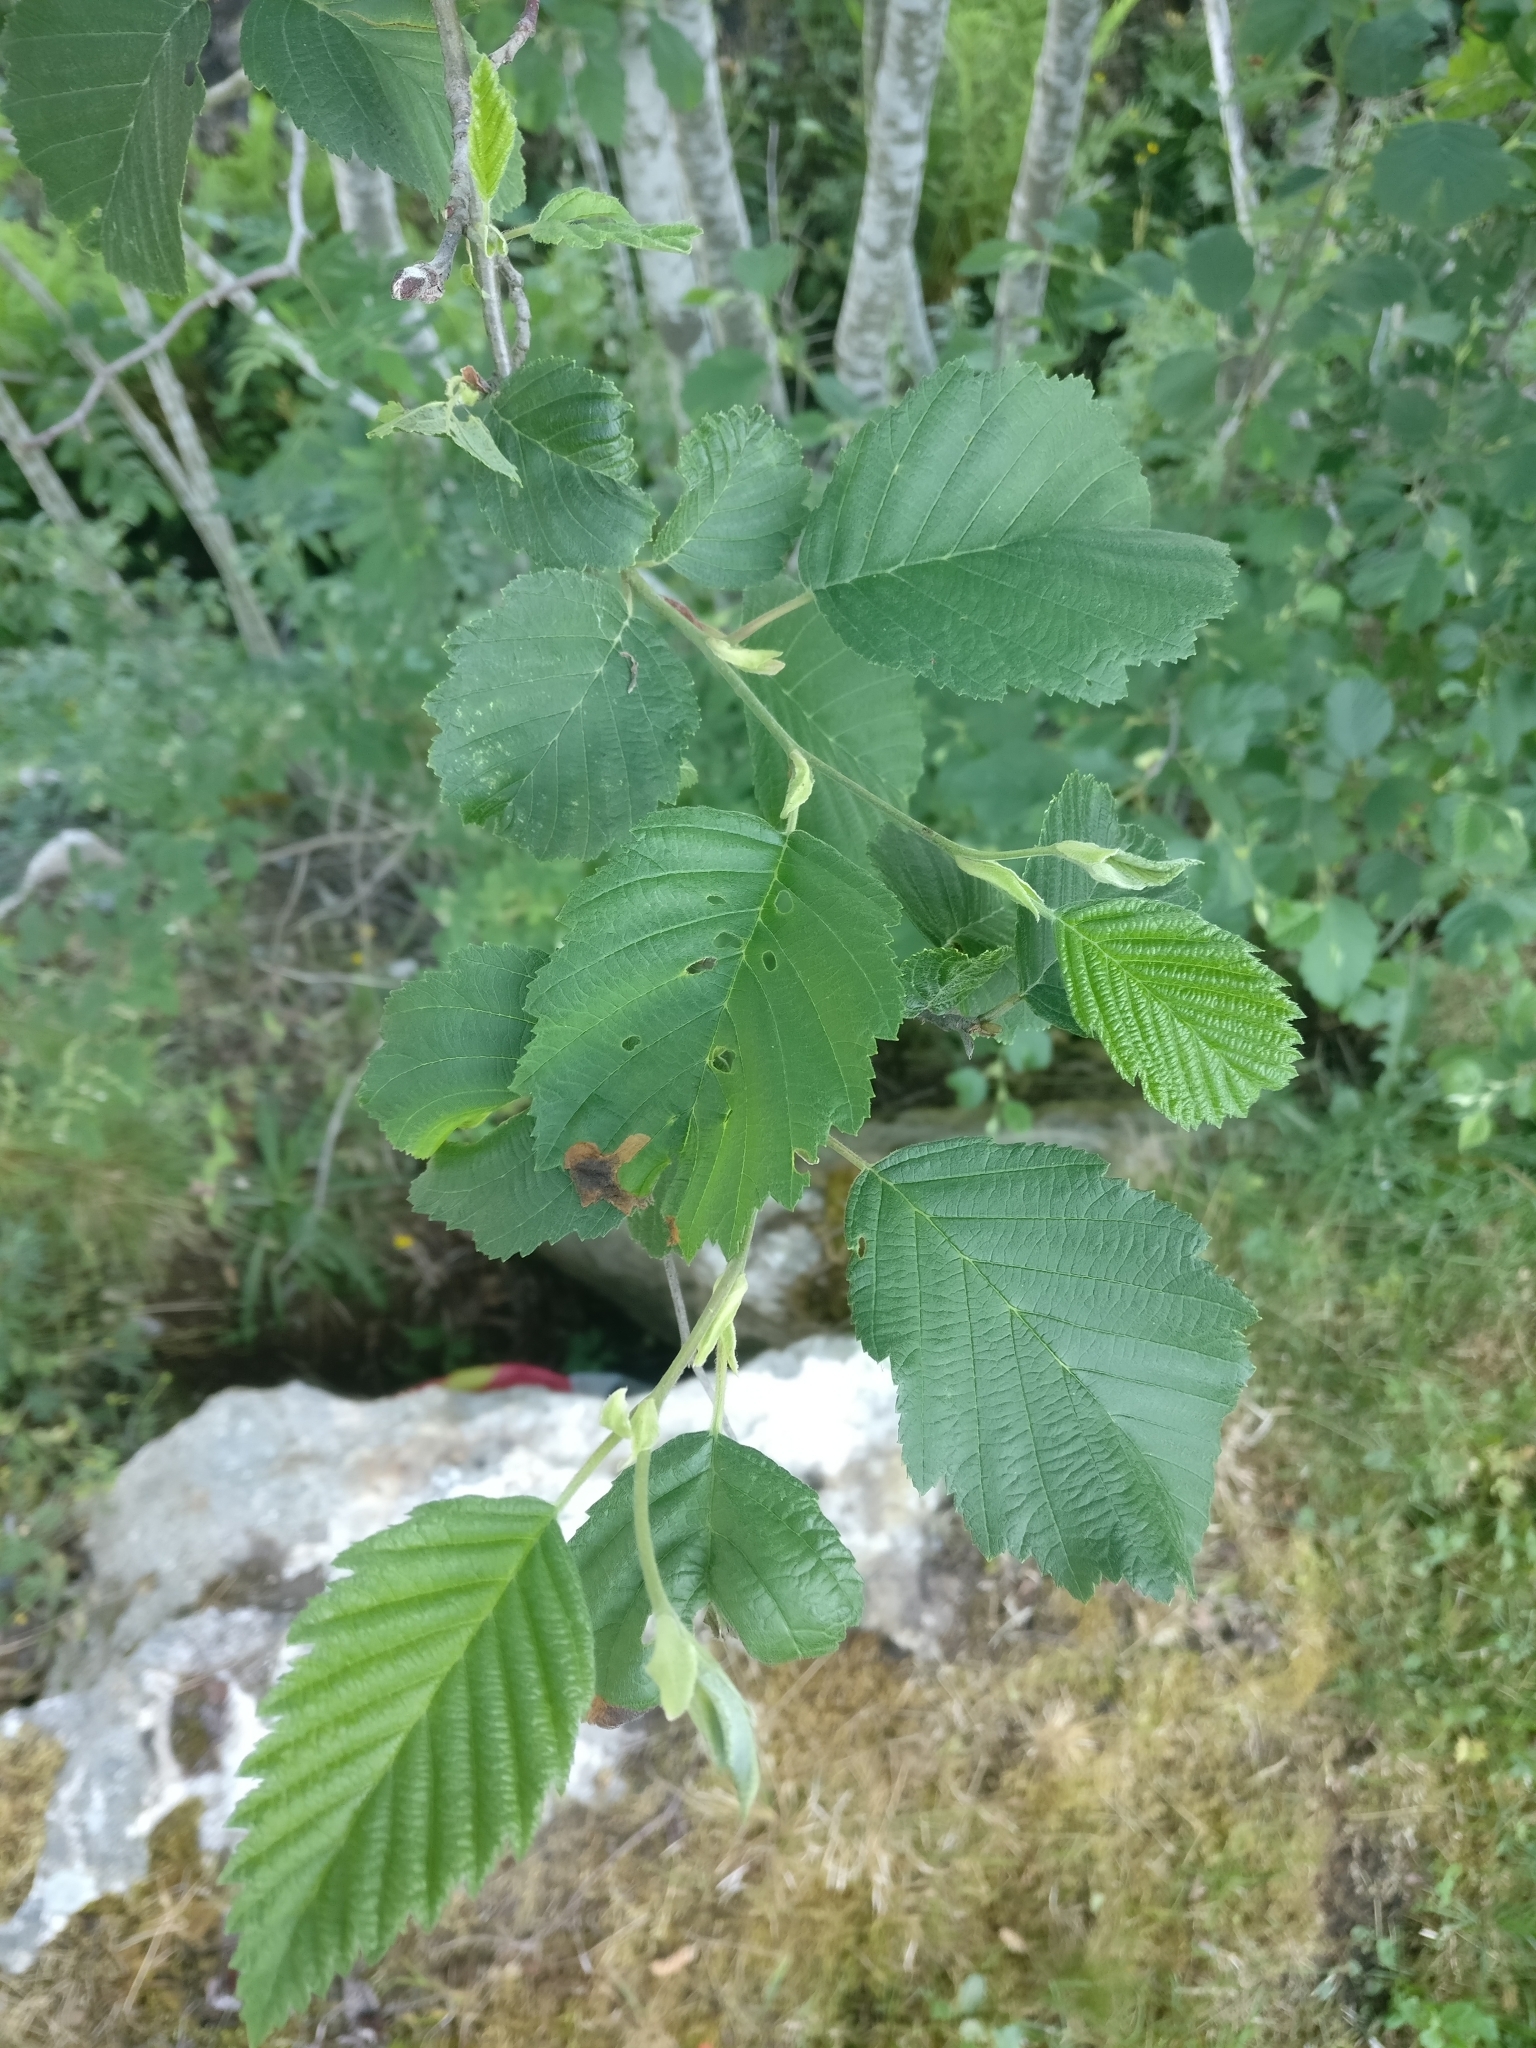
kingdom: Plantae
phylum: Tracheophyta
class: Magnoliopsida
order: Fagales
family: Betulaceae
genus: Alnus
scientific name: Alnus incana
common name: Grey alder
